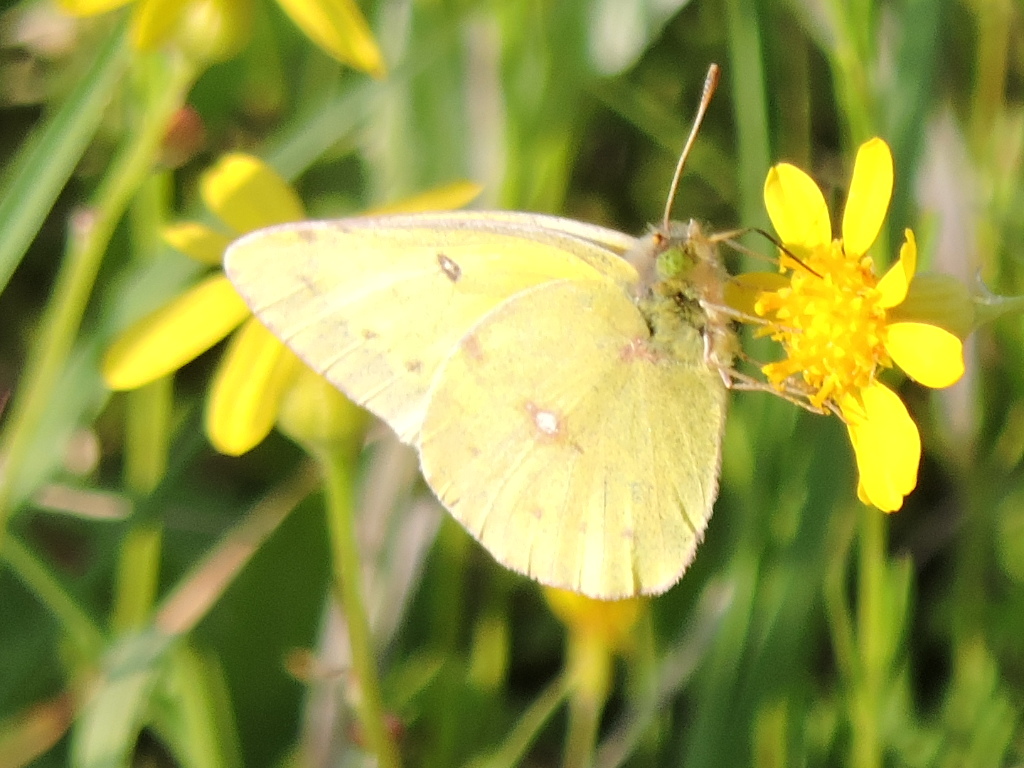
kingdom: Animalia
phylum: Arthropoda
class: Insecta
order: Lepidoptera
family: Pieridae
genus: Colias
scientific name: Colias eurytheme
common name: Alfalfa butterfly
